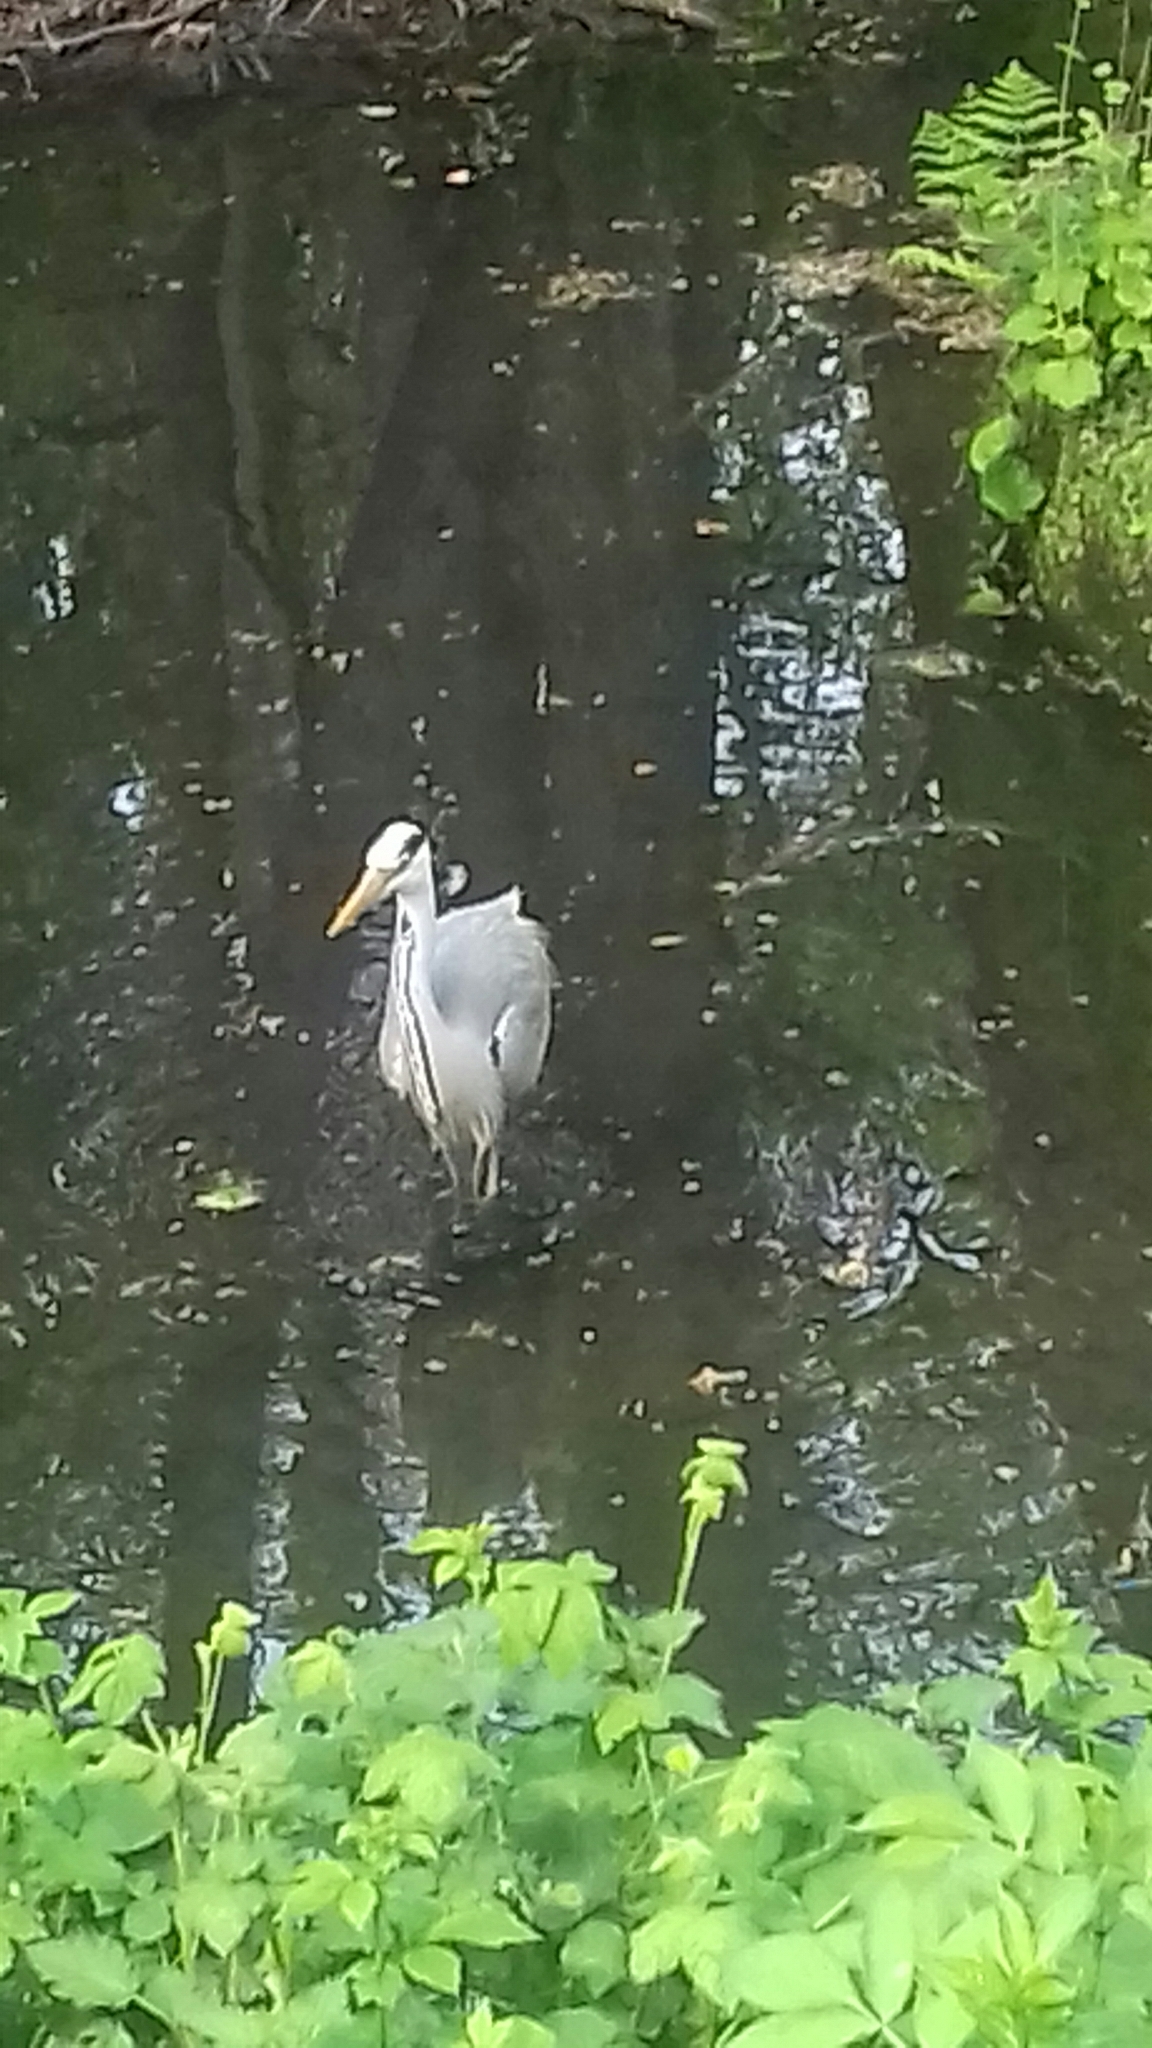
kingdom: Animalia
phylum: Chordata
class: Aves
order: Pelecaniformes
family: Ardeidae
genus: Ardea
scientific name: Ardea cinerea
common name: Grey heron
